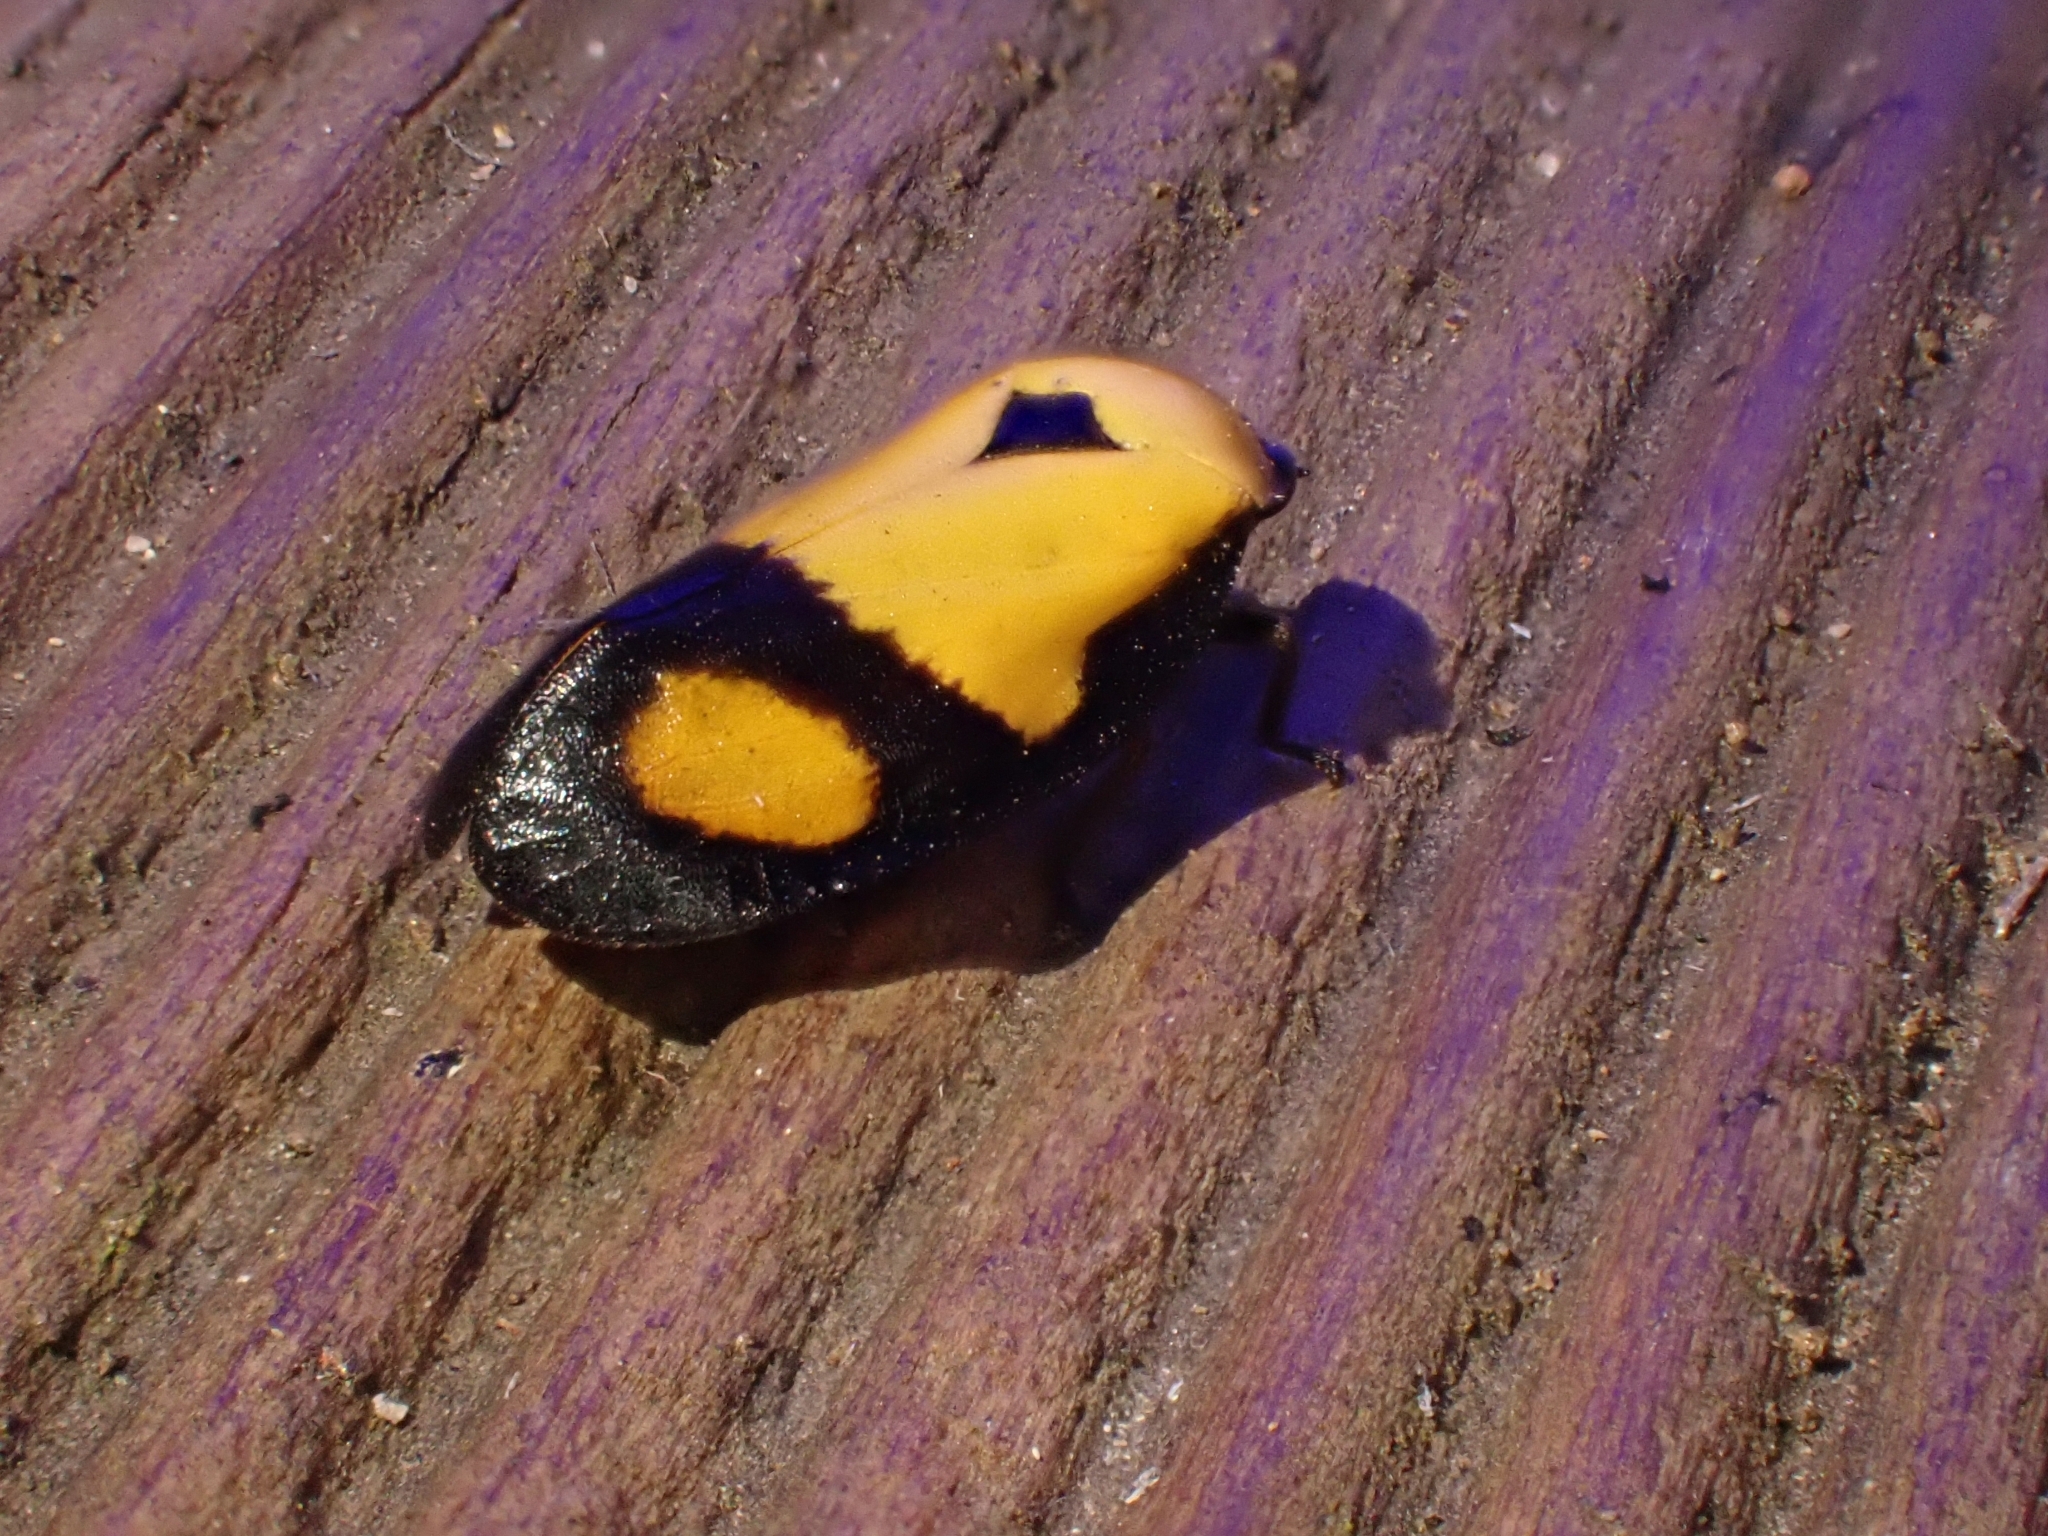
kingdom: Animalia
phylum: Arthropoda
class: Insecta
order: Hemiptera
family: Cercopidae
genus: Hemitriecphora
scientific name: Hemitriecphora strongii
